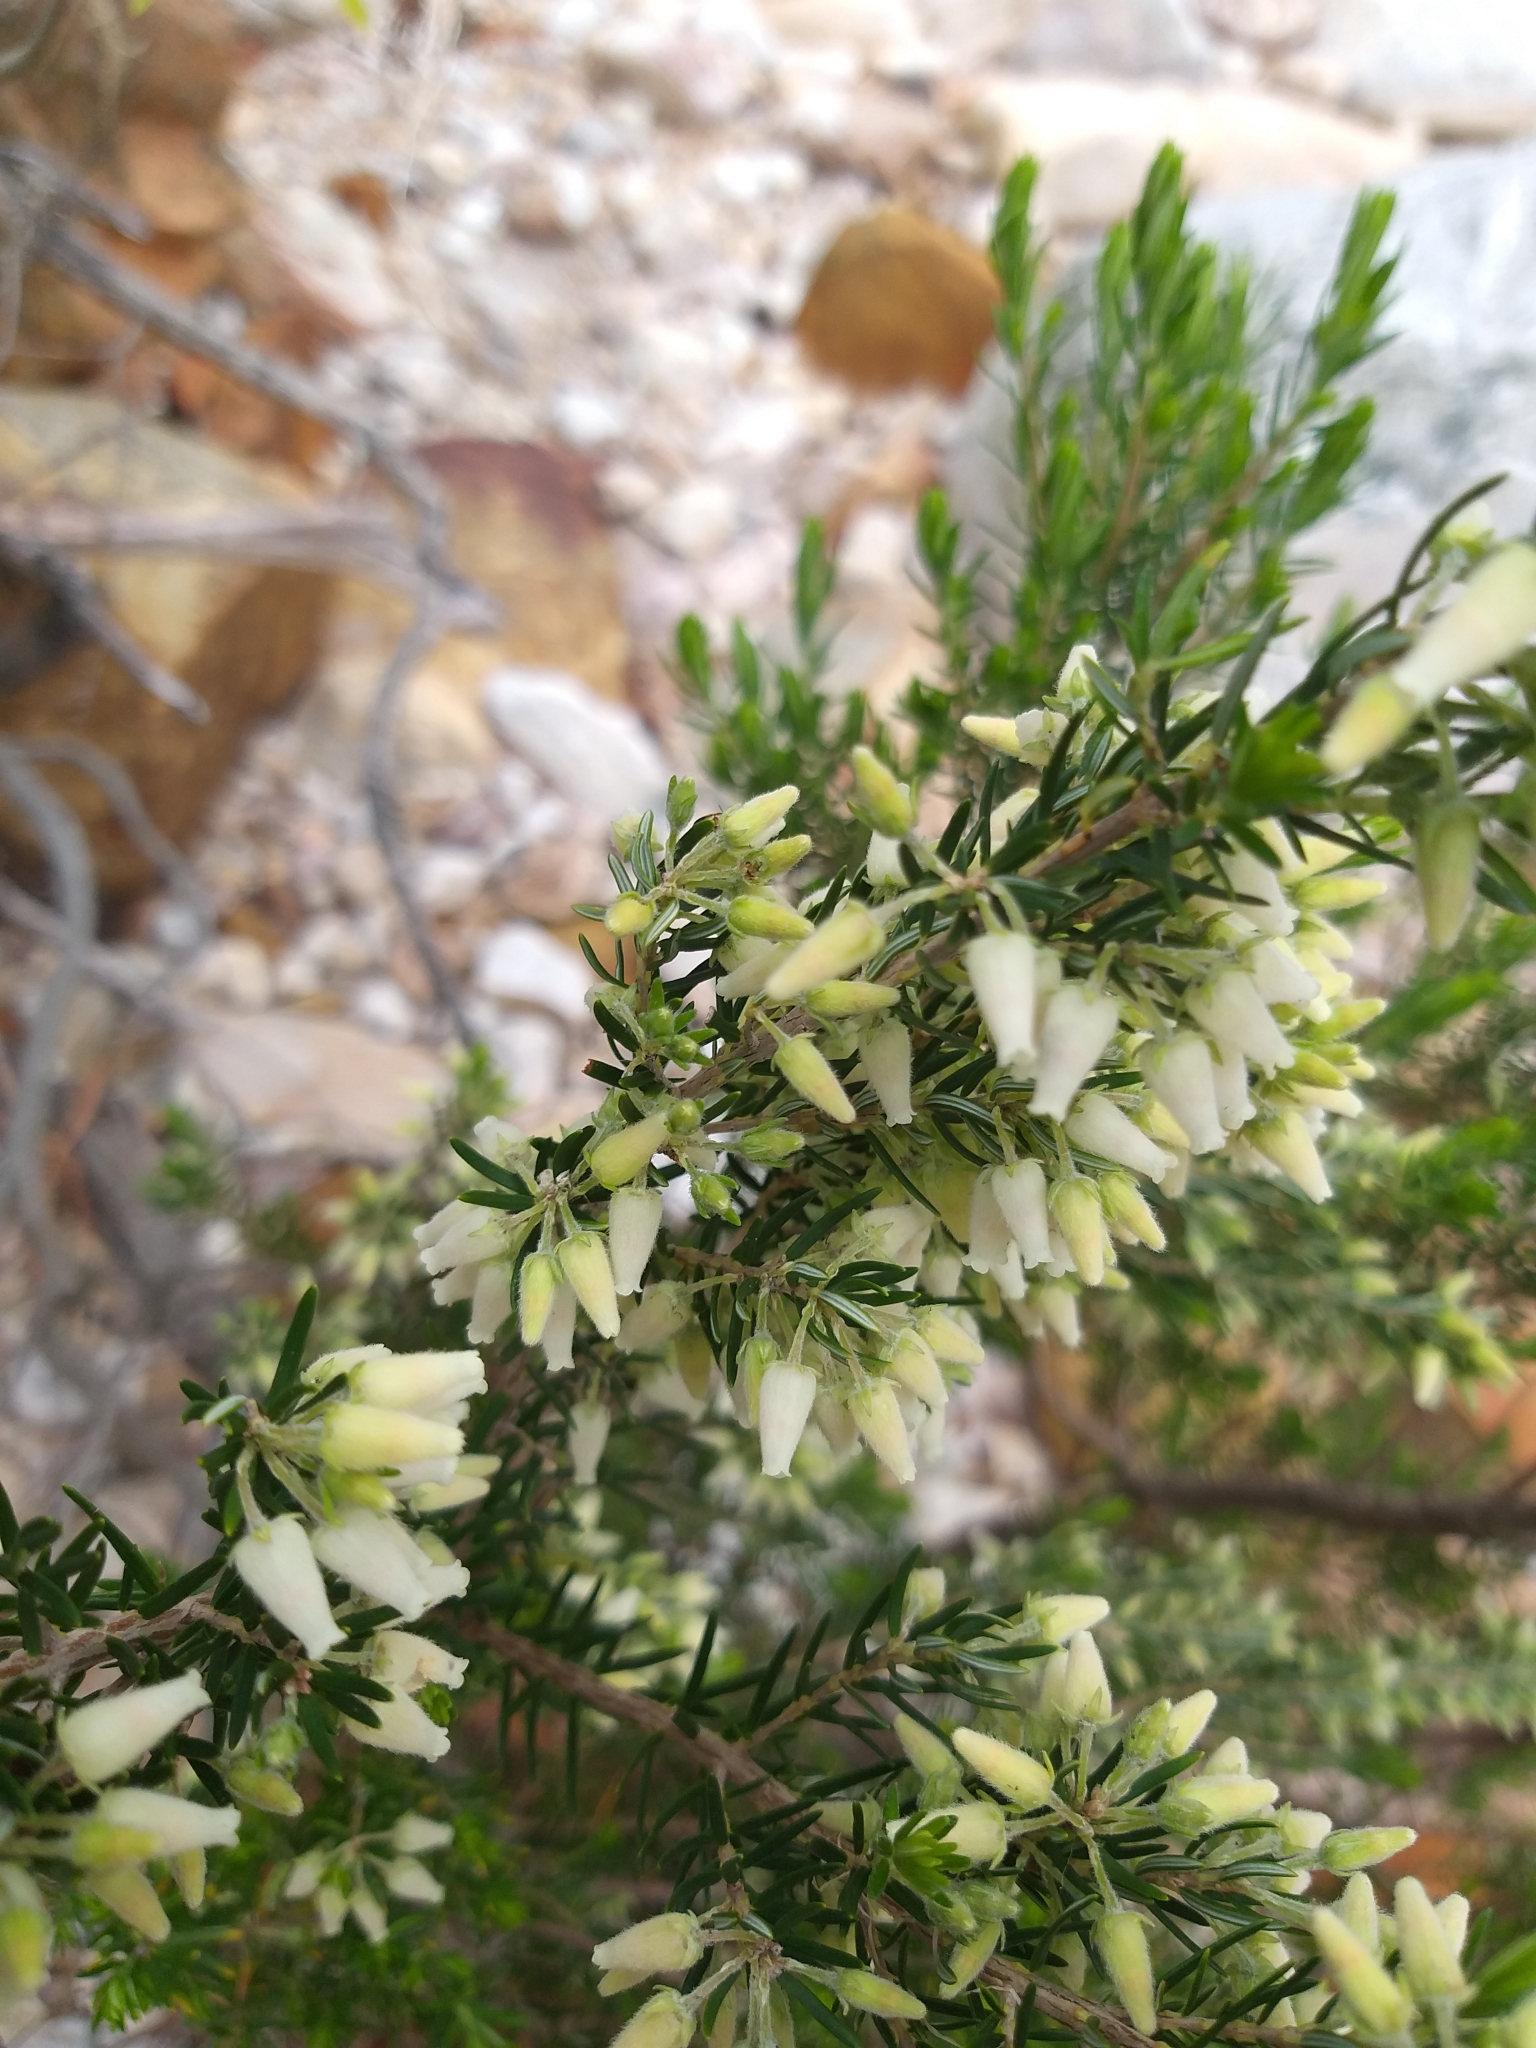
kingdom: Plantae
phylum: Tracheophyta
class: Magnoliopsida
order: Ericales
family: Ericaceae
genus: Erica
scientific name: Erica caffra
